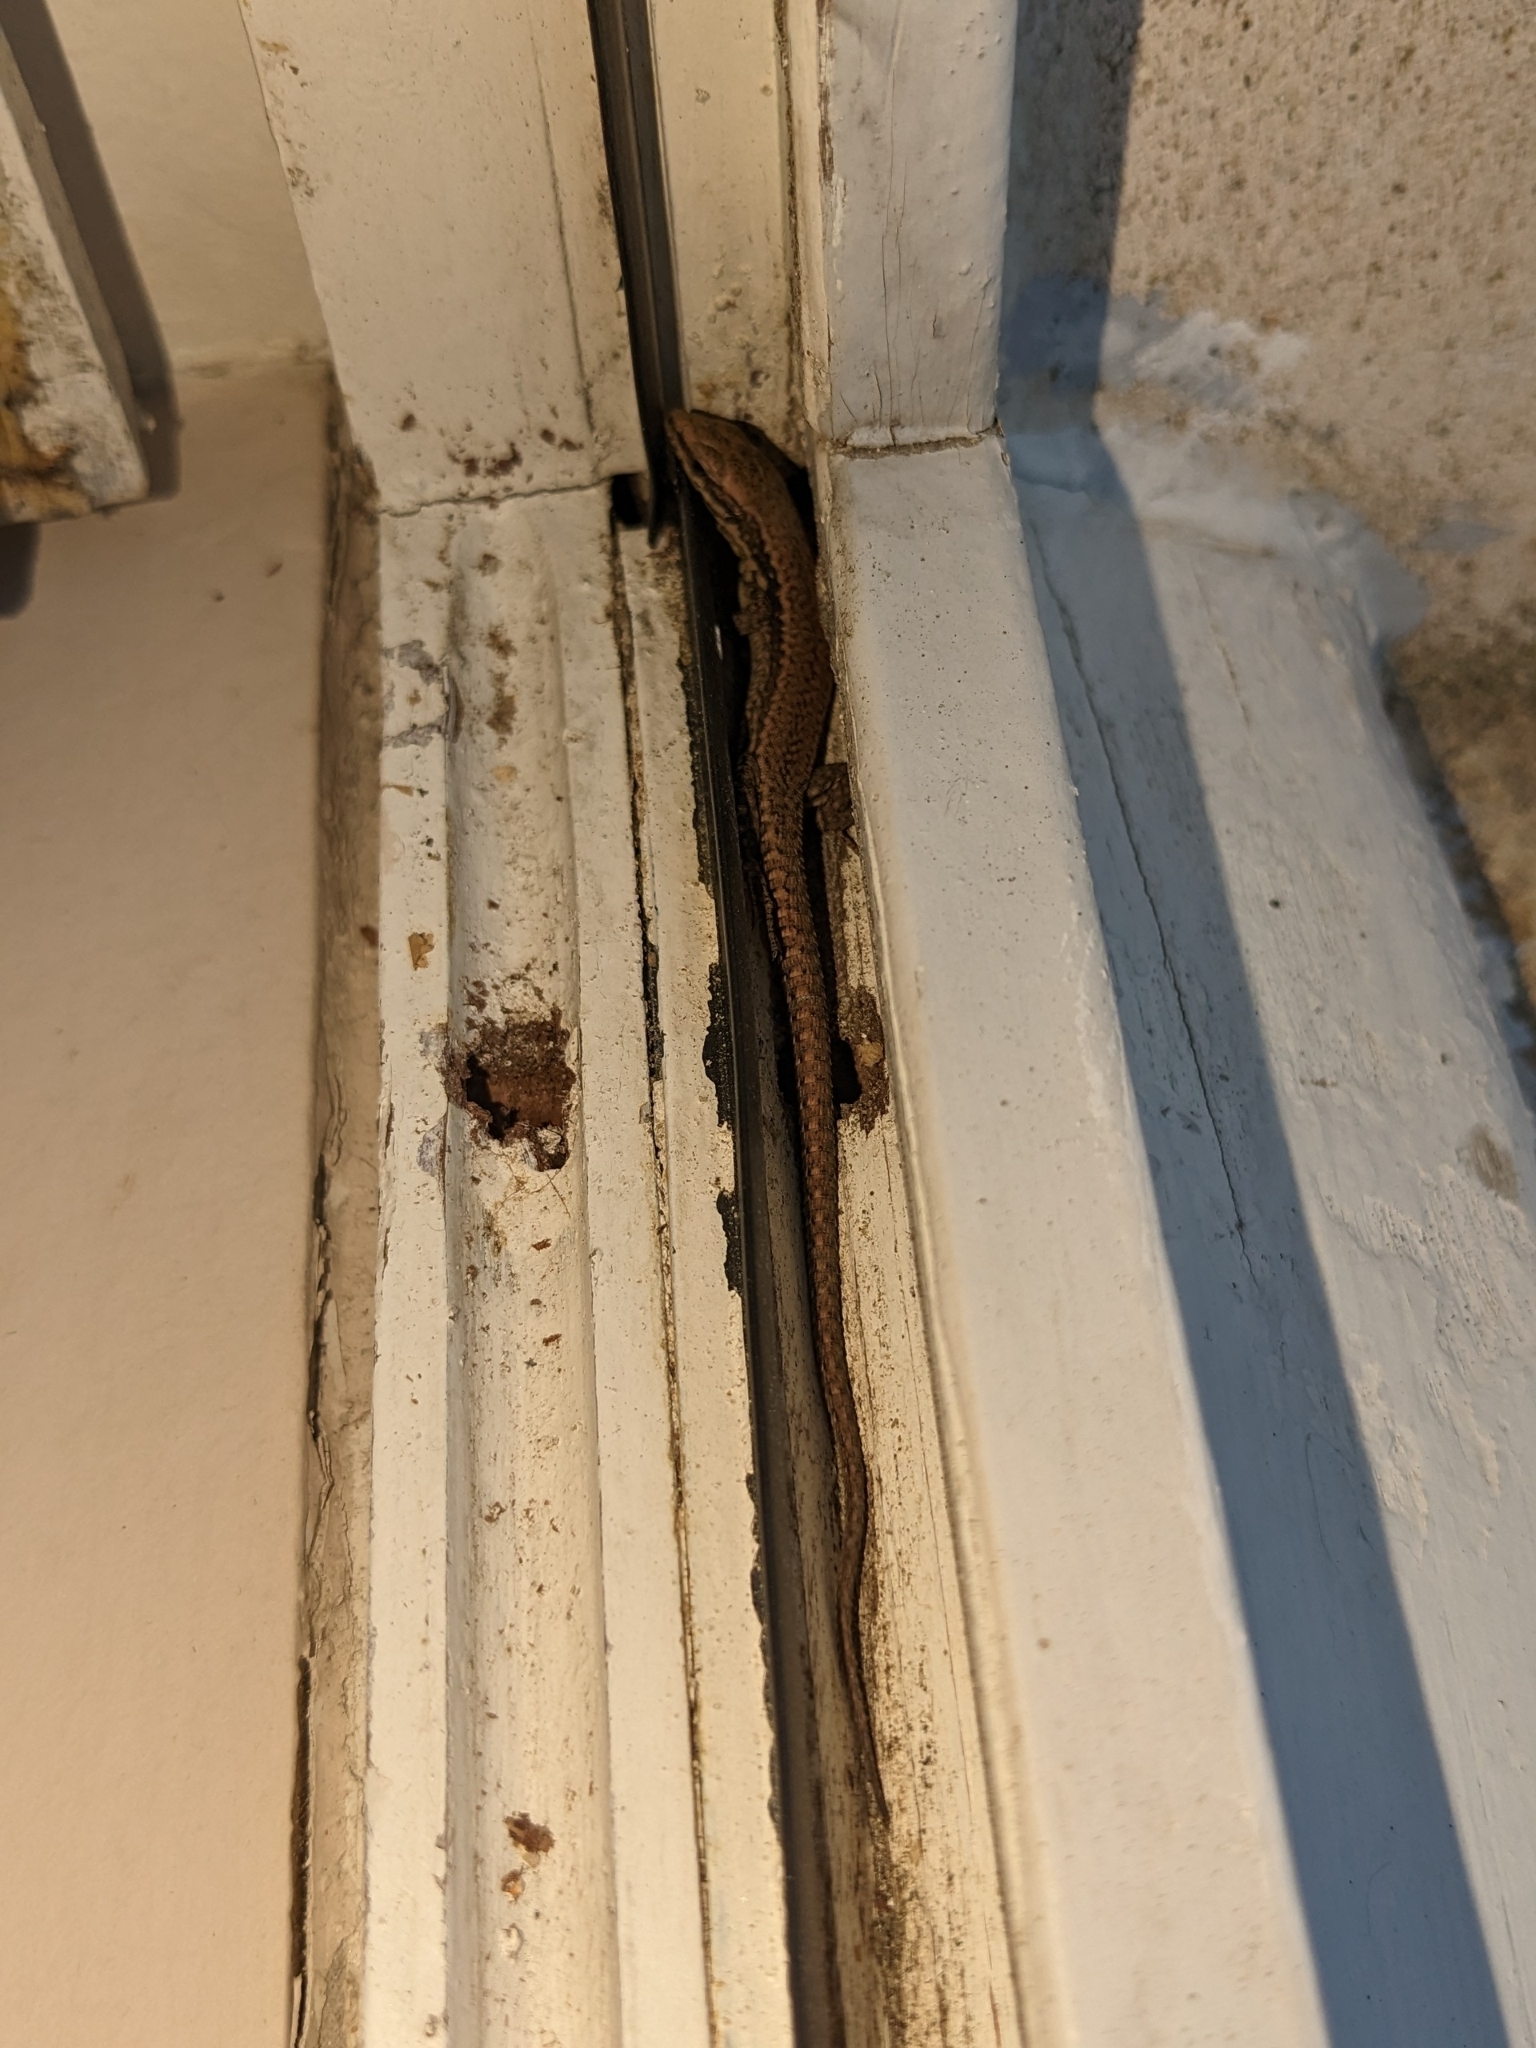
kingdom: Animalia
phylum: Chordata
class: Squamata
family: Lacertidae
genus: Podarcis
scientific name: Podarcis muralis
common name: Common wall lizard
